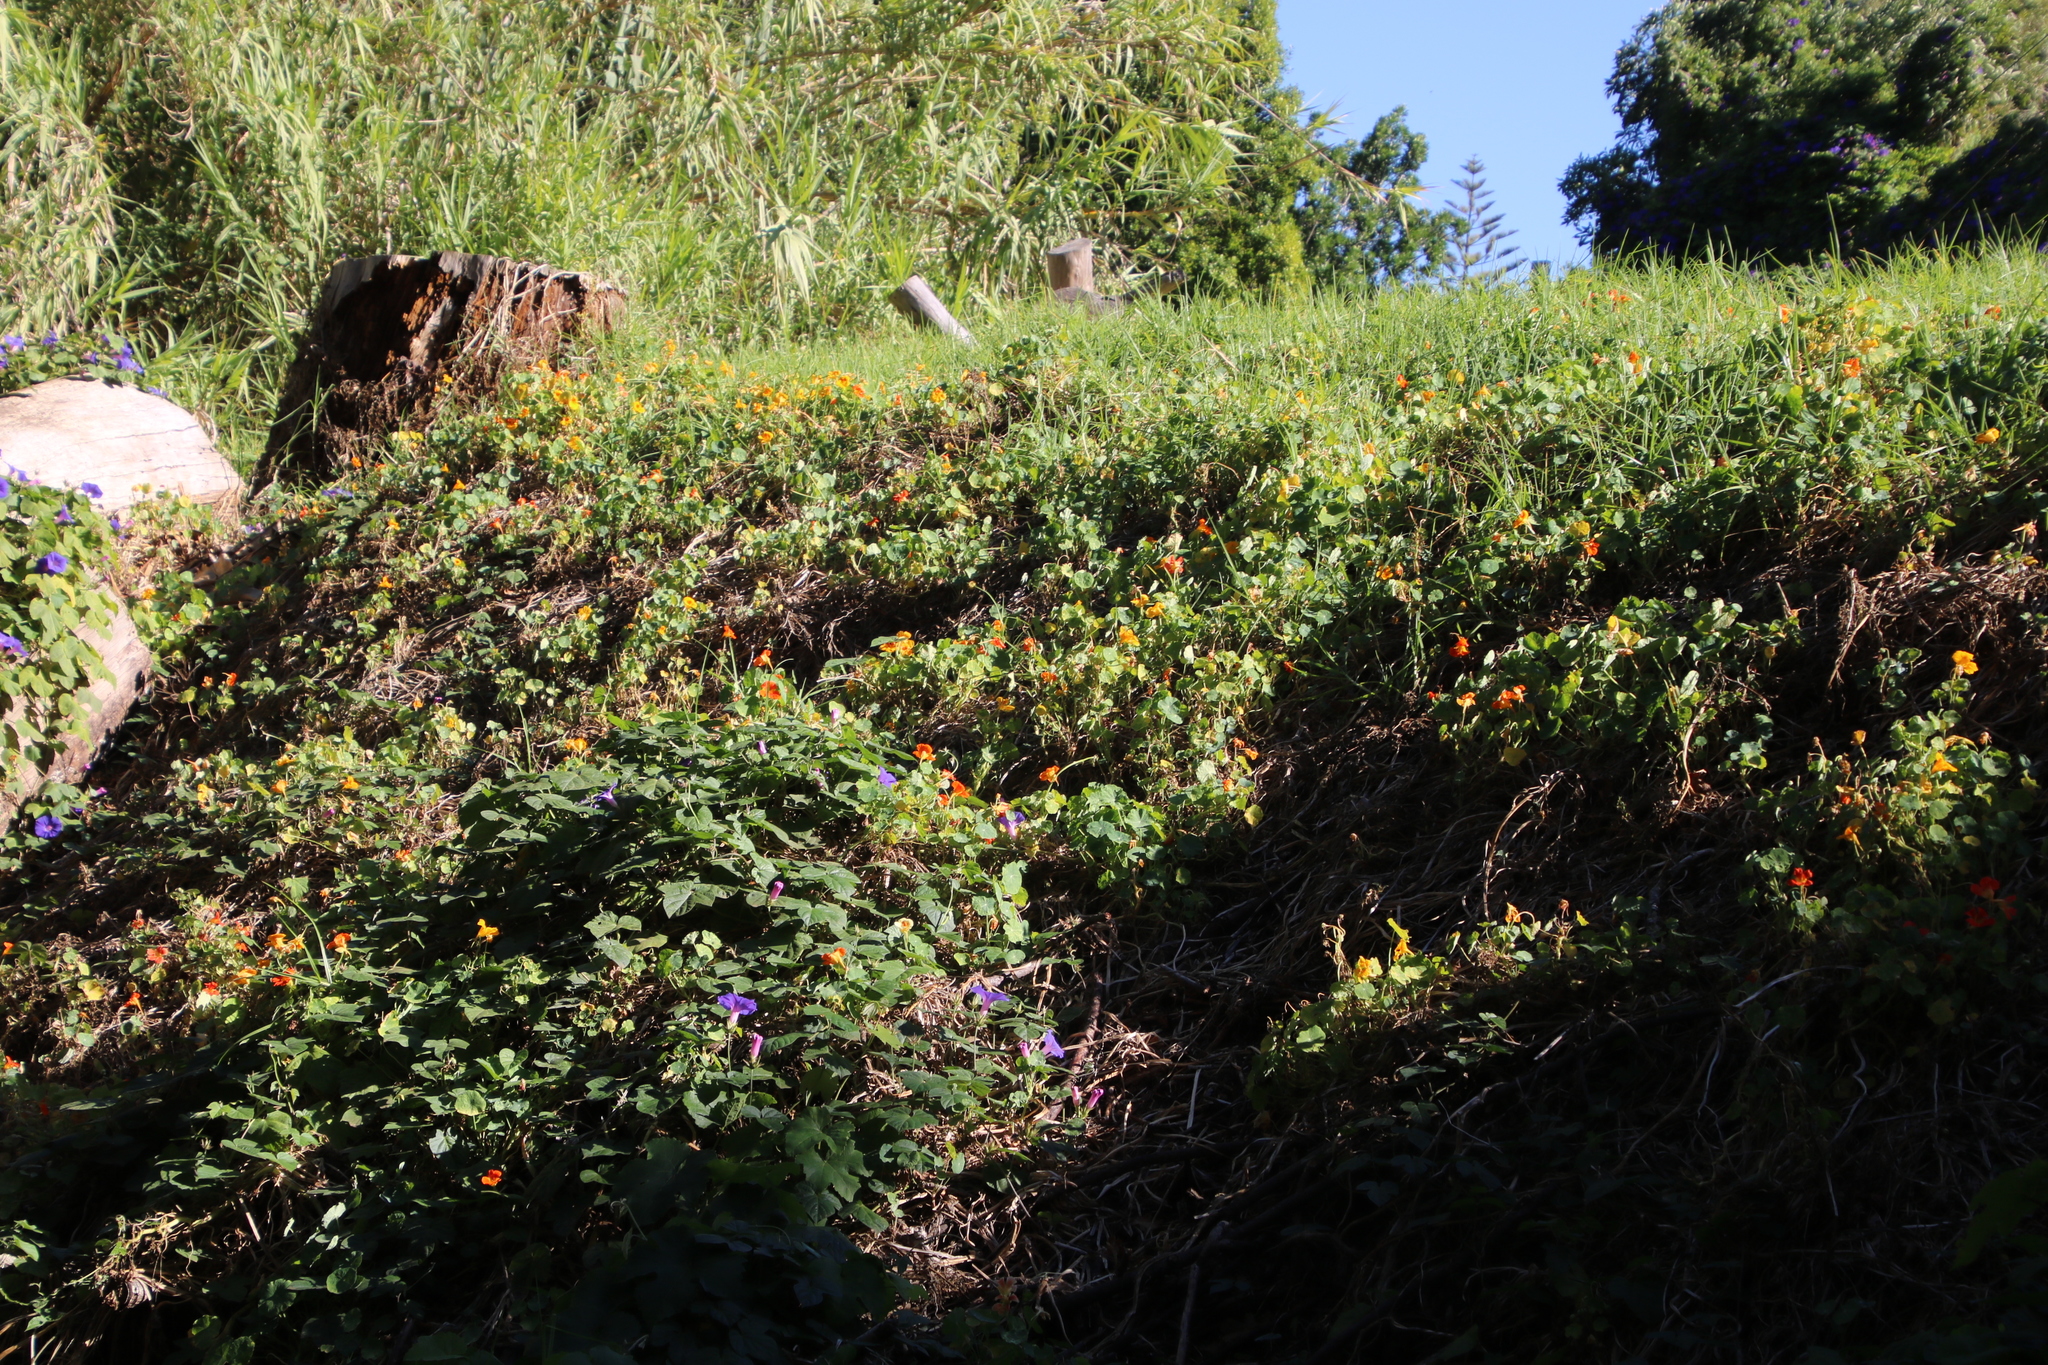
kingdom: Plantae
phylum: Tracheophyta
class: Magnoliopsida
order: Brassicales
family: Tropaeolaceae
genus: Tropaeolum
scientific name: Tropaeolum majus
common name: Nasturtium
